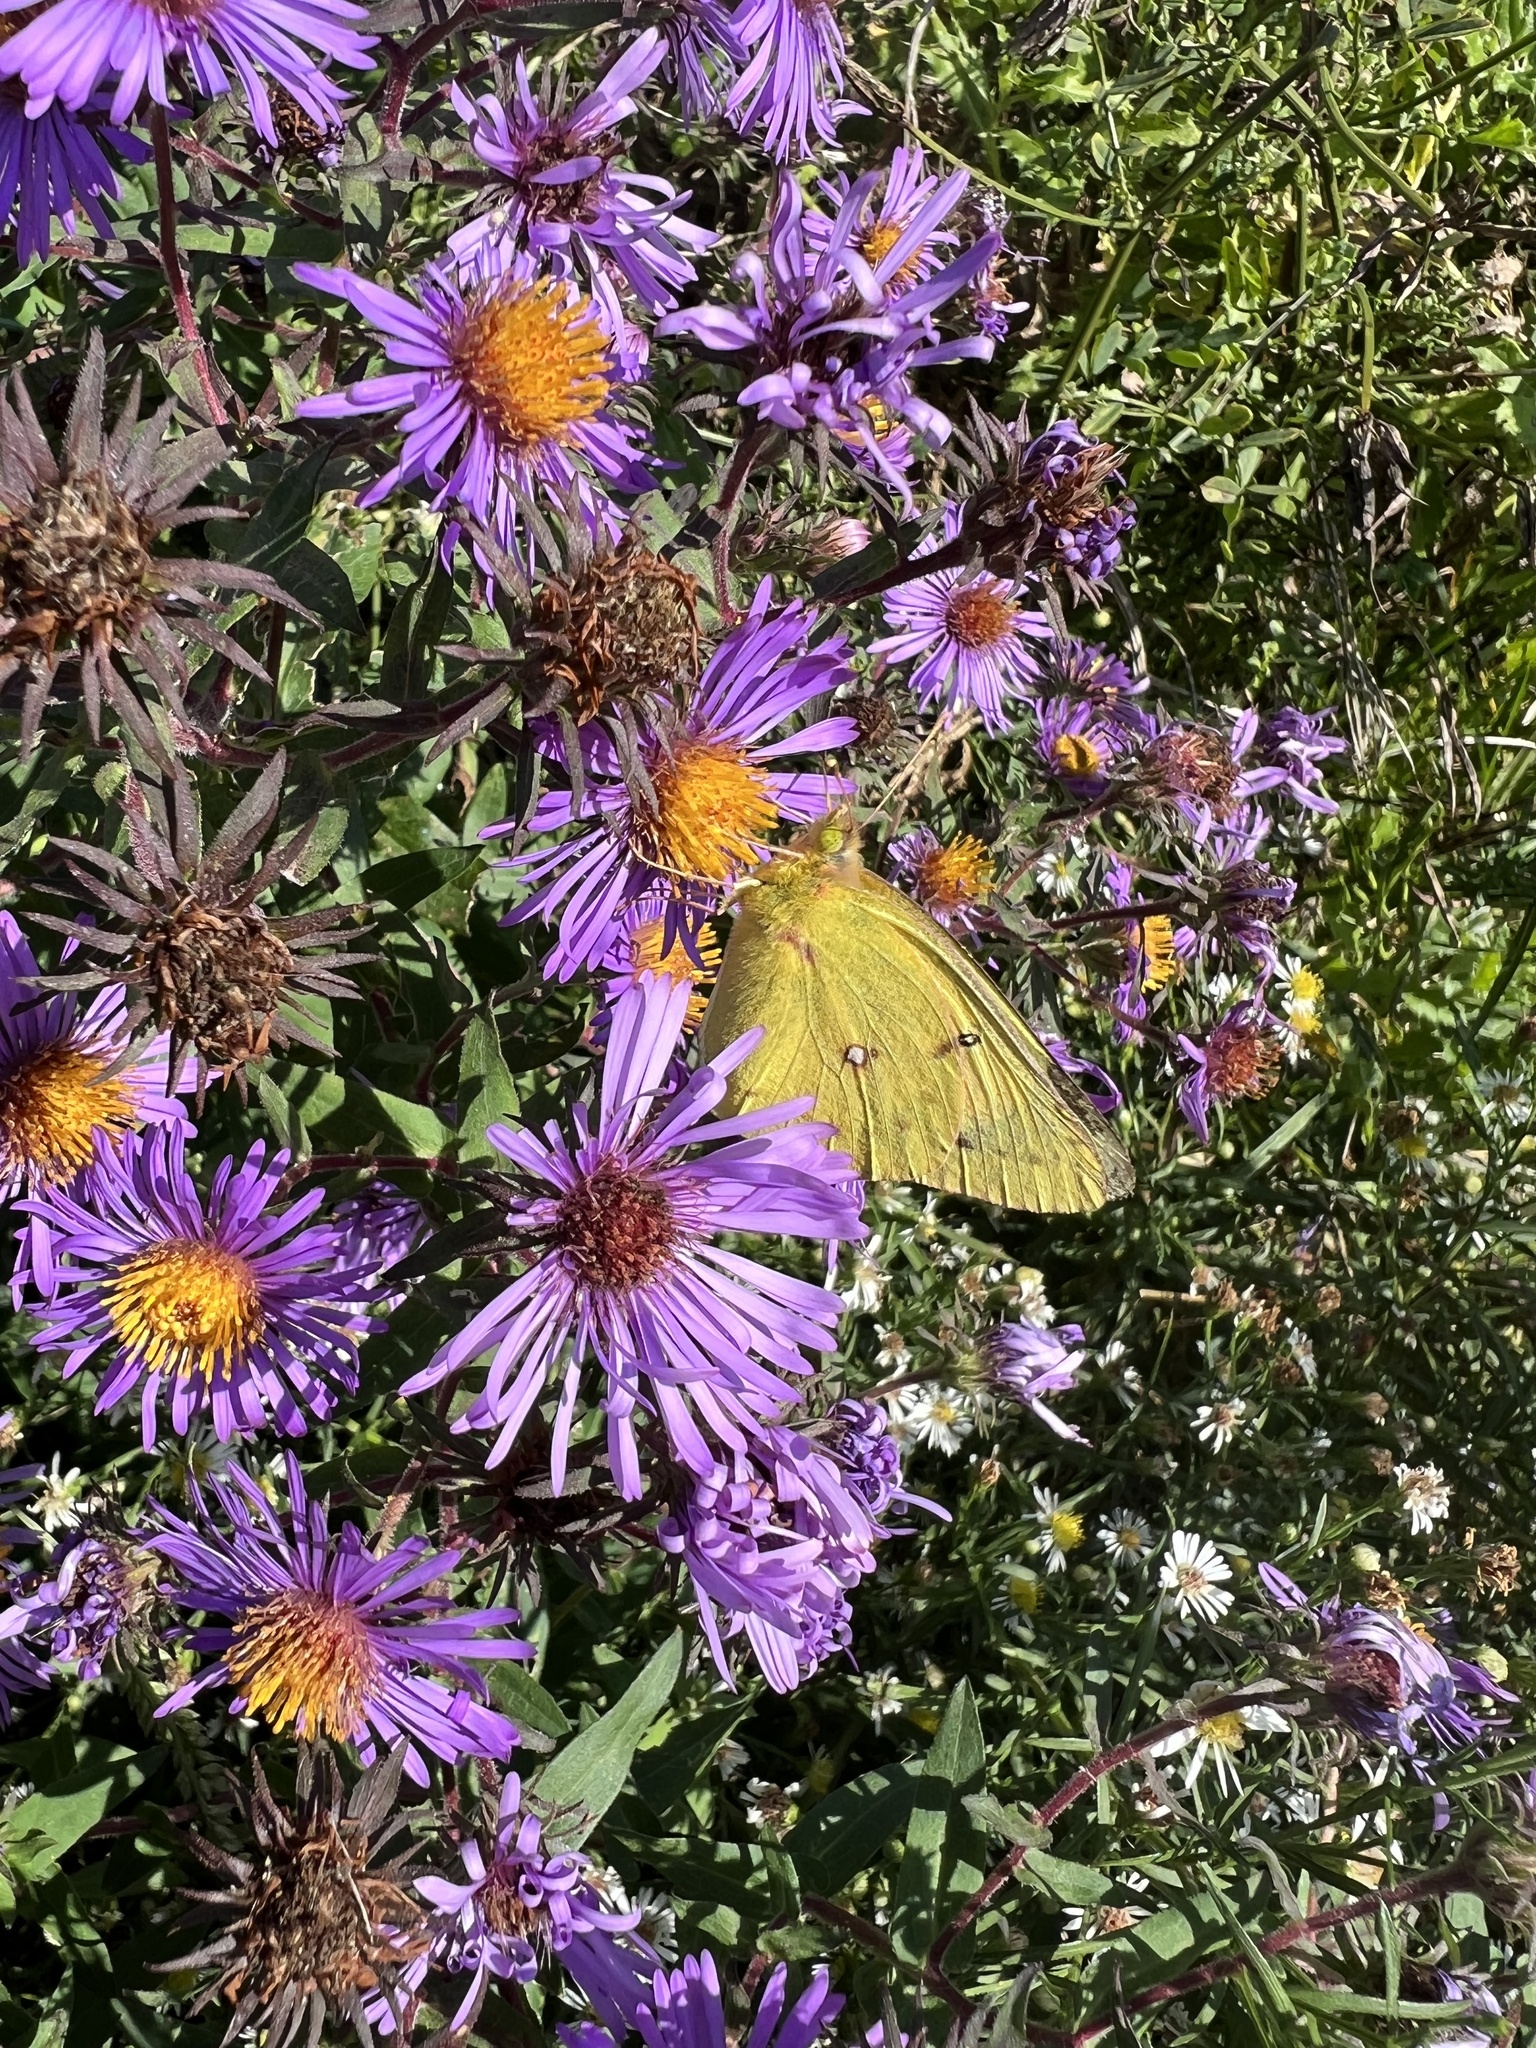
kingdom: Animalia
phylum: Arthropoda
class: Insecta
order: Lepidoptera
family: Pieridae
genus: Colias
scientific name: Colias eurytheme
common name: Alfalfa butterfly
